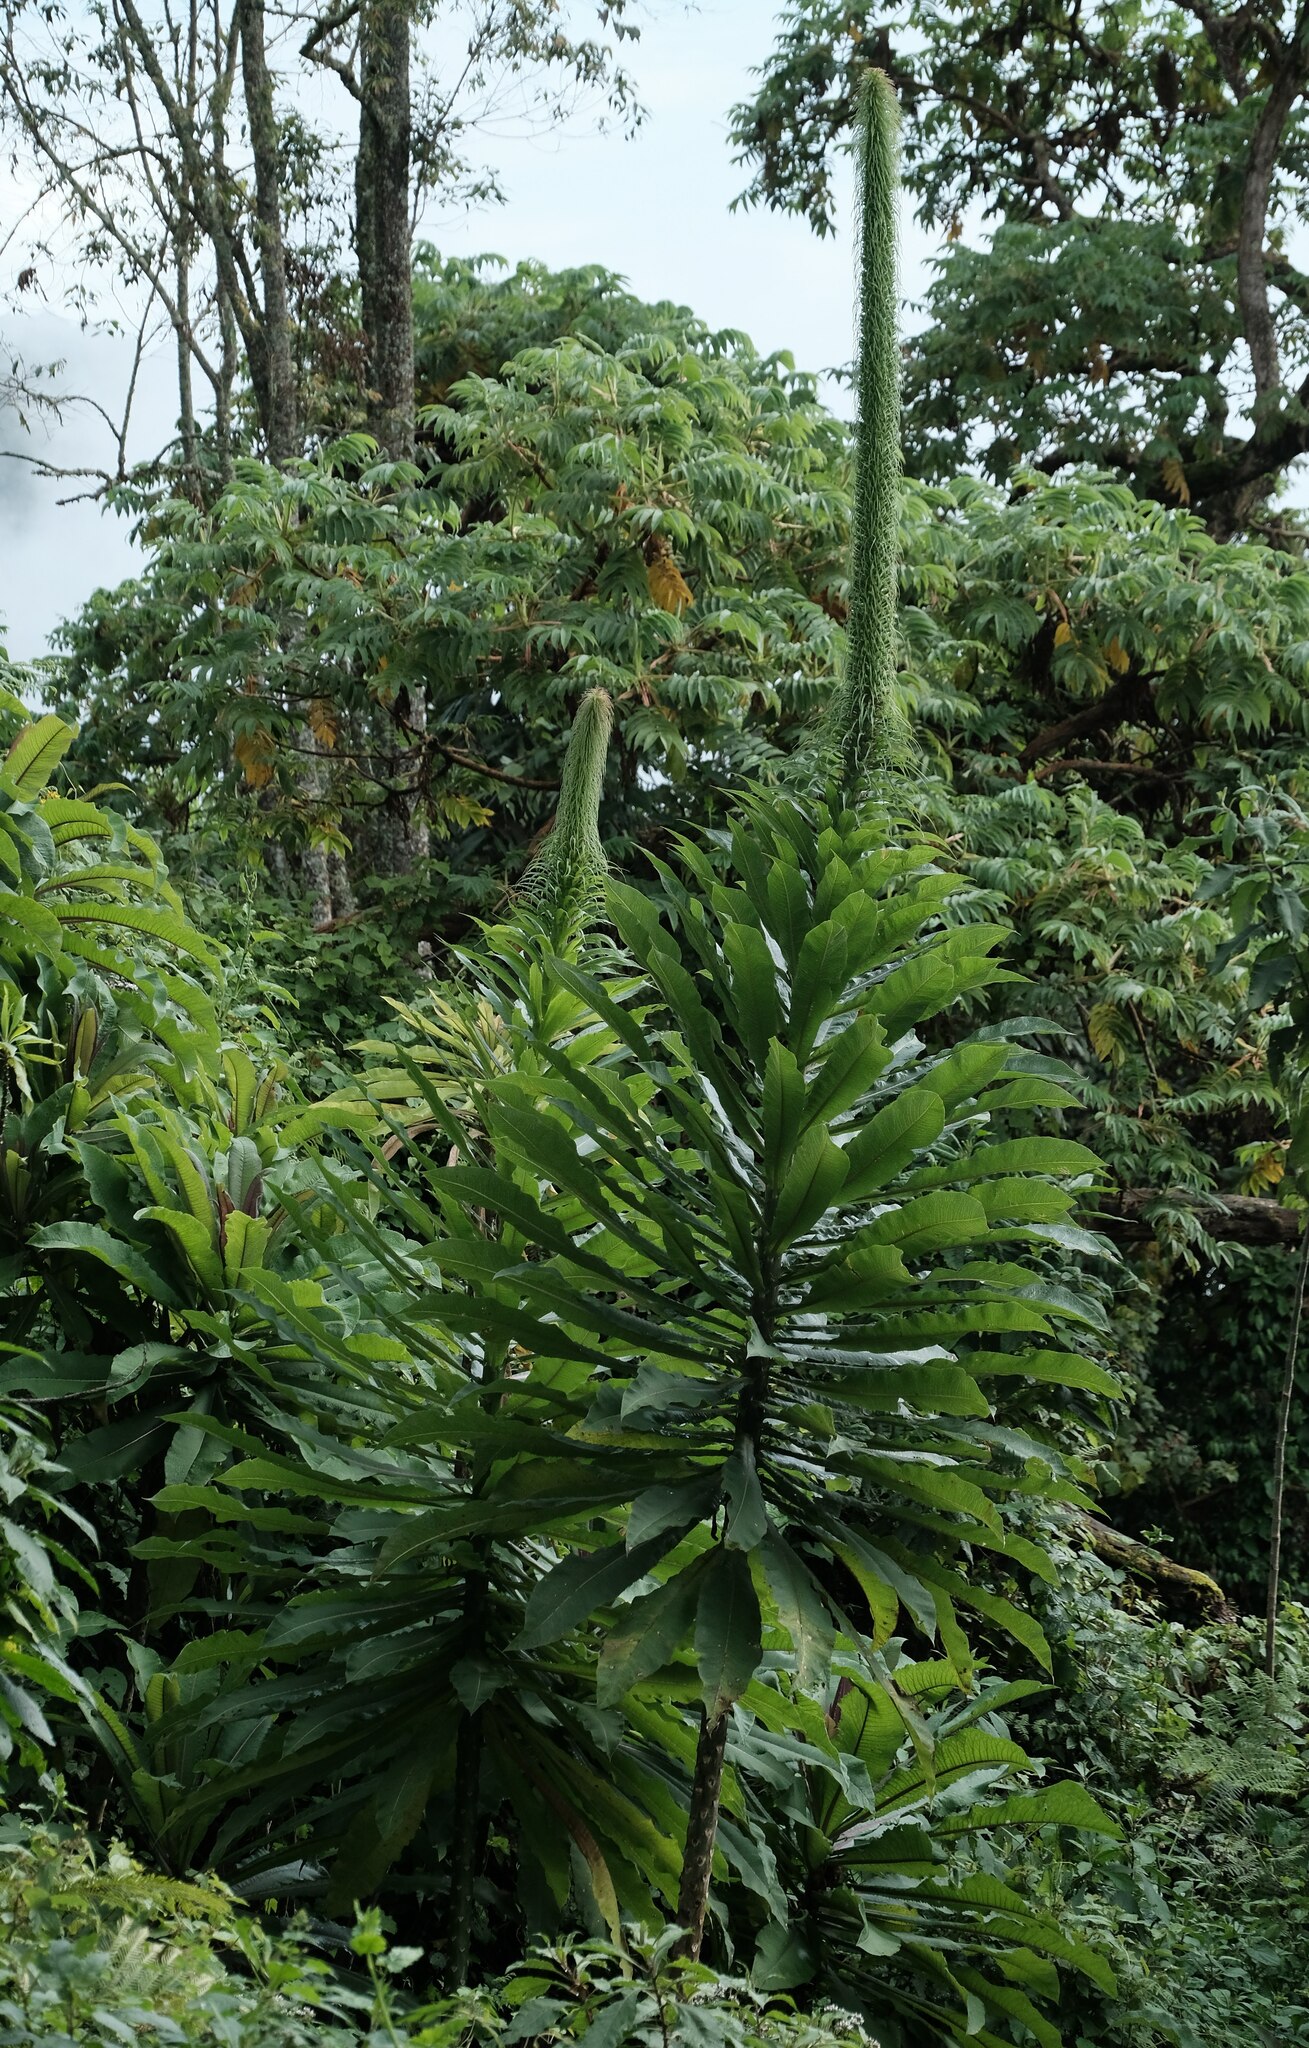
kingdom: Plantae
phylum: Tracheophyta
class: Magnoliopsida
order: Asterales
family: Campanulaceae
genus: Lobelia
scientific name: Lobelia giberroa
